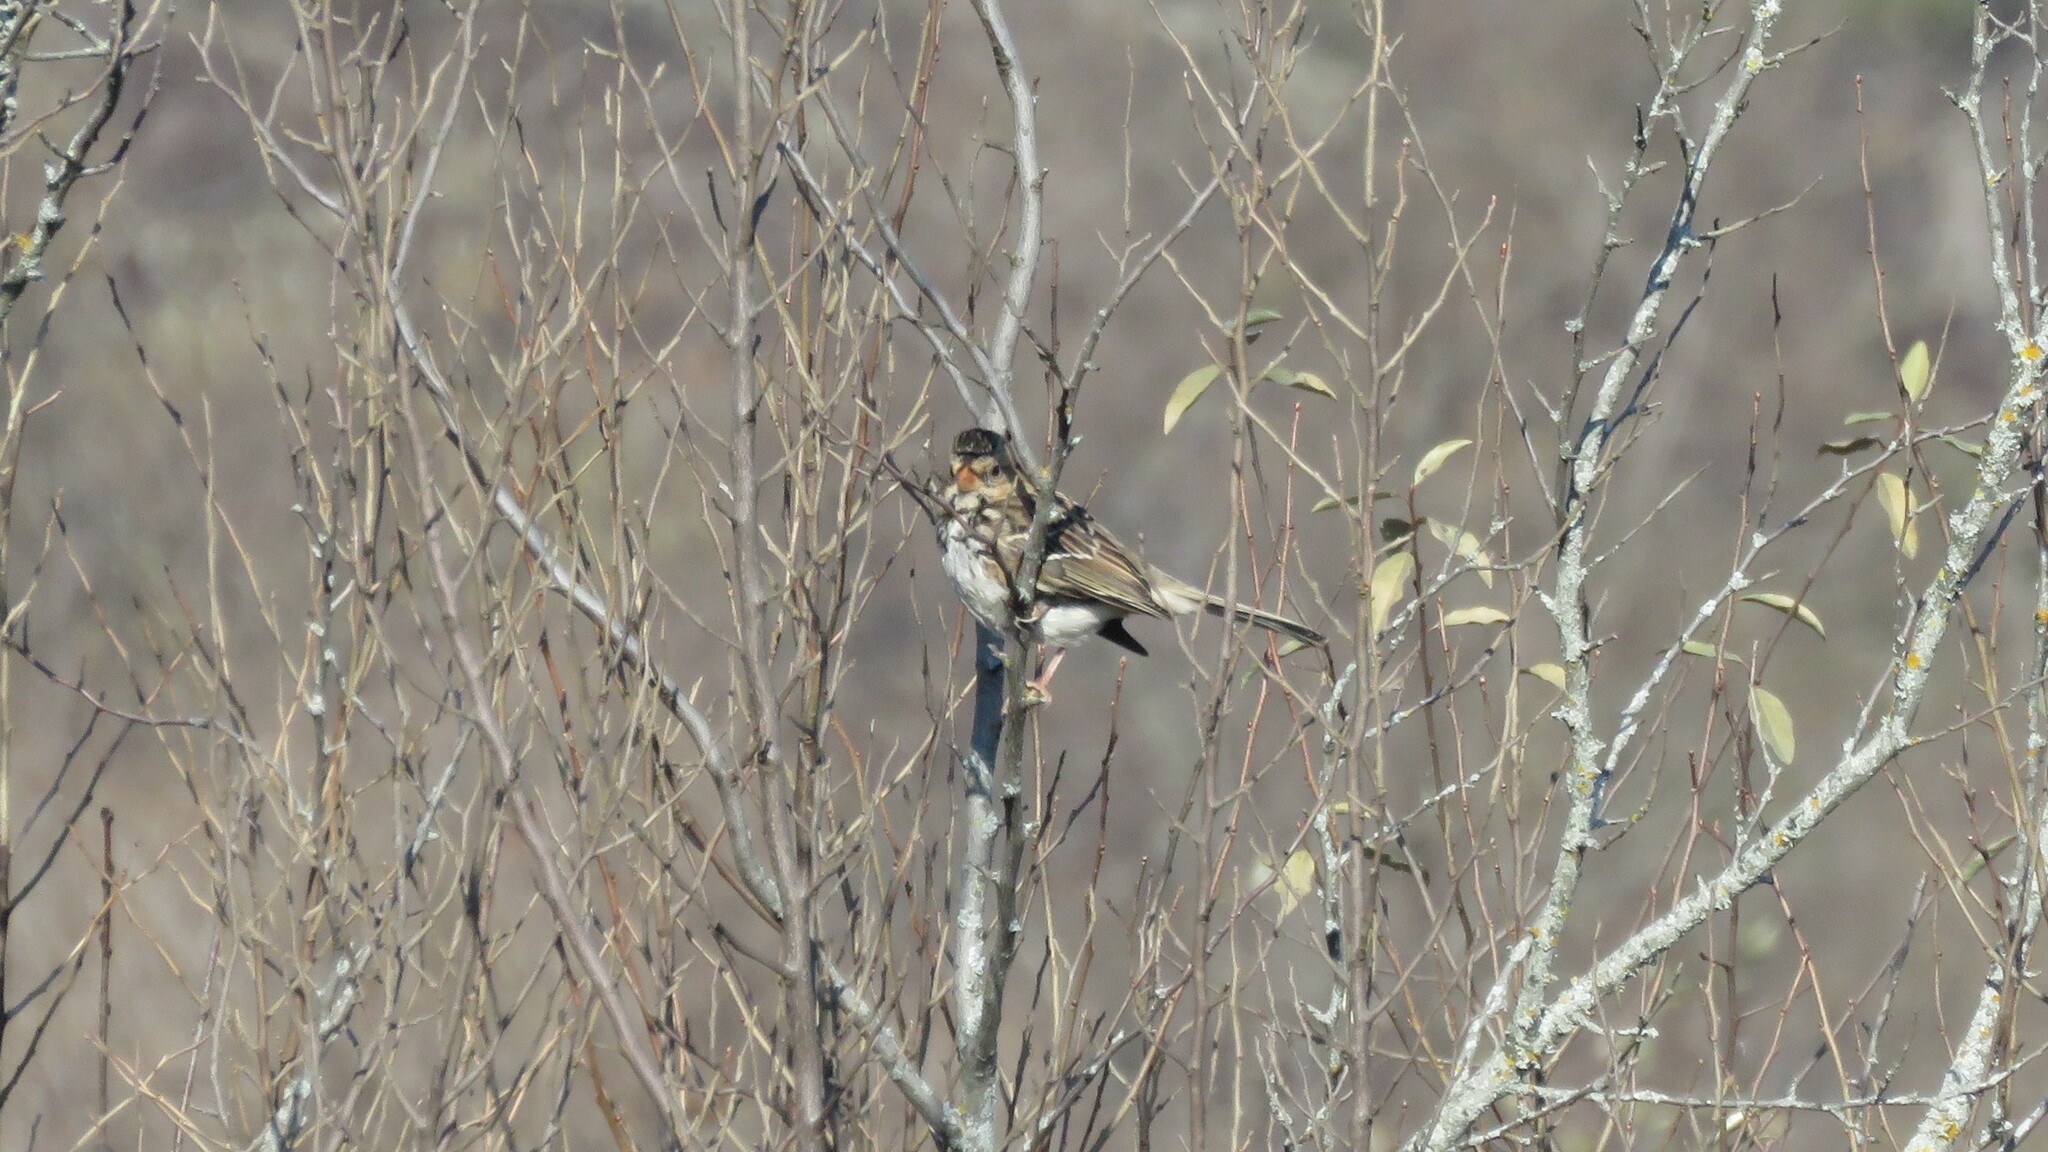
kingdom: Animalia
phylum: Chordata
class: Aves
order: Passeriformes
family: Passerellidae
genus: Zonotrichia
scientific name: Zonotrichia querula
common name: Harris's sparrow
